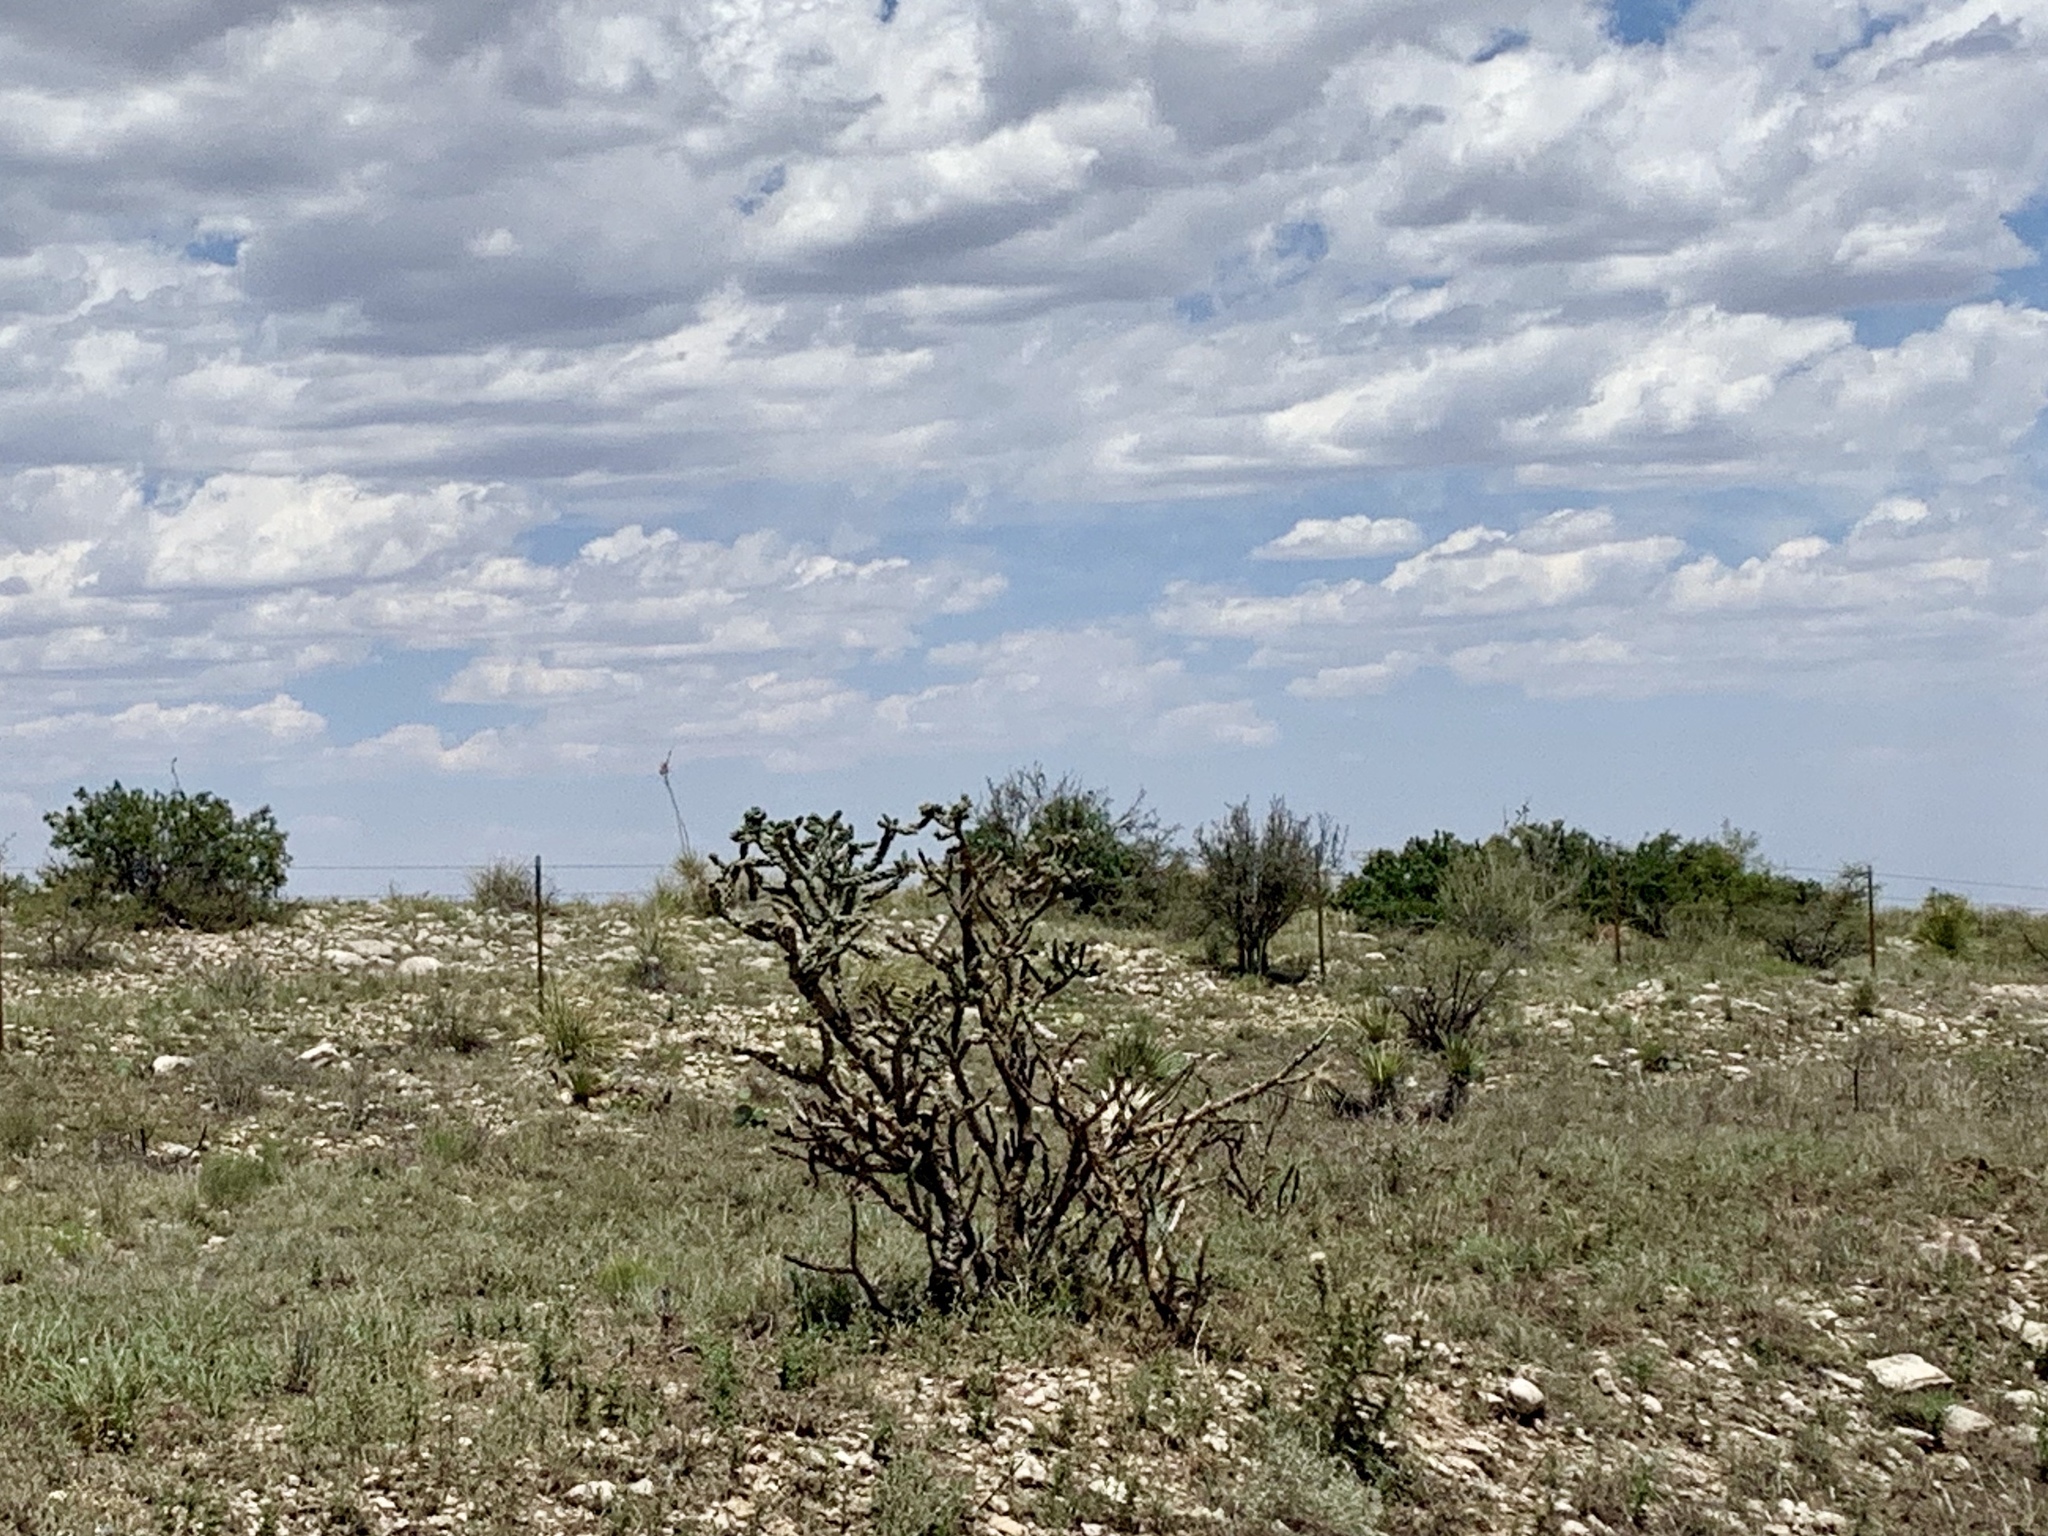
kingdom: Plantae
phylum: Tracheophyta
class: Magnoliopsida
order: Caryophyllales
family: Cactaceae
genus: Cylindropuntia
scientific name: Cylindropuntia imbricata
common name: Candelabrum cactus
